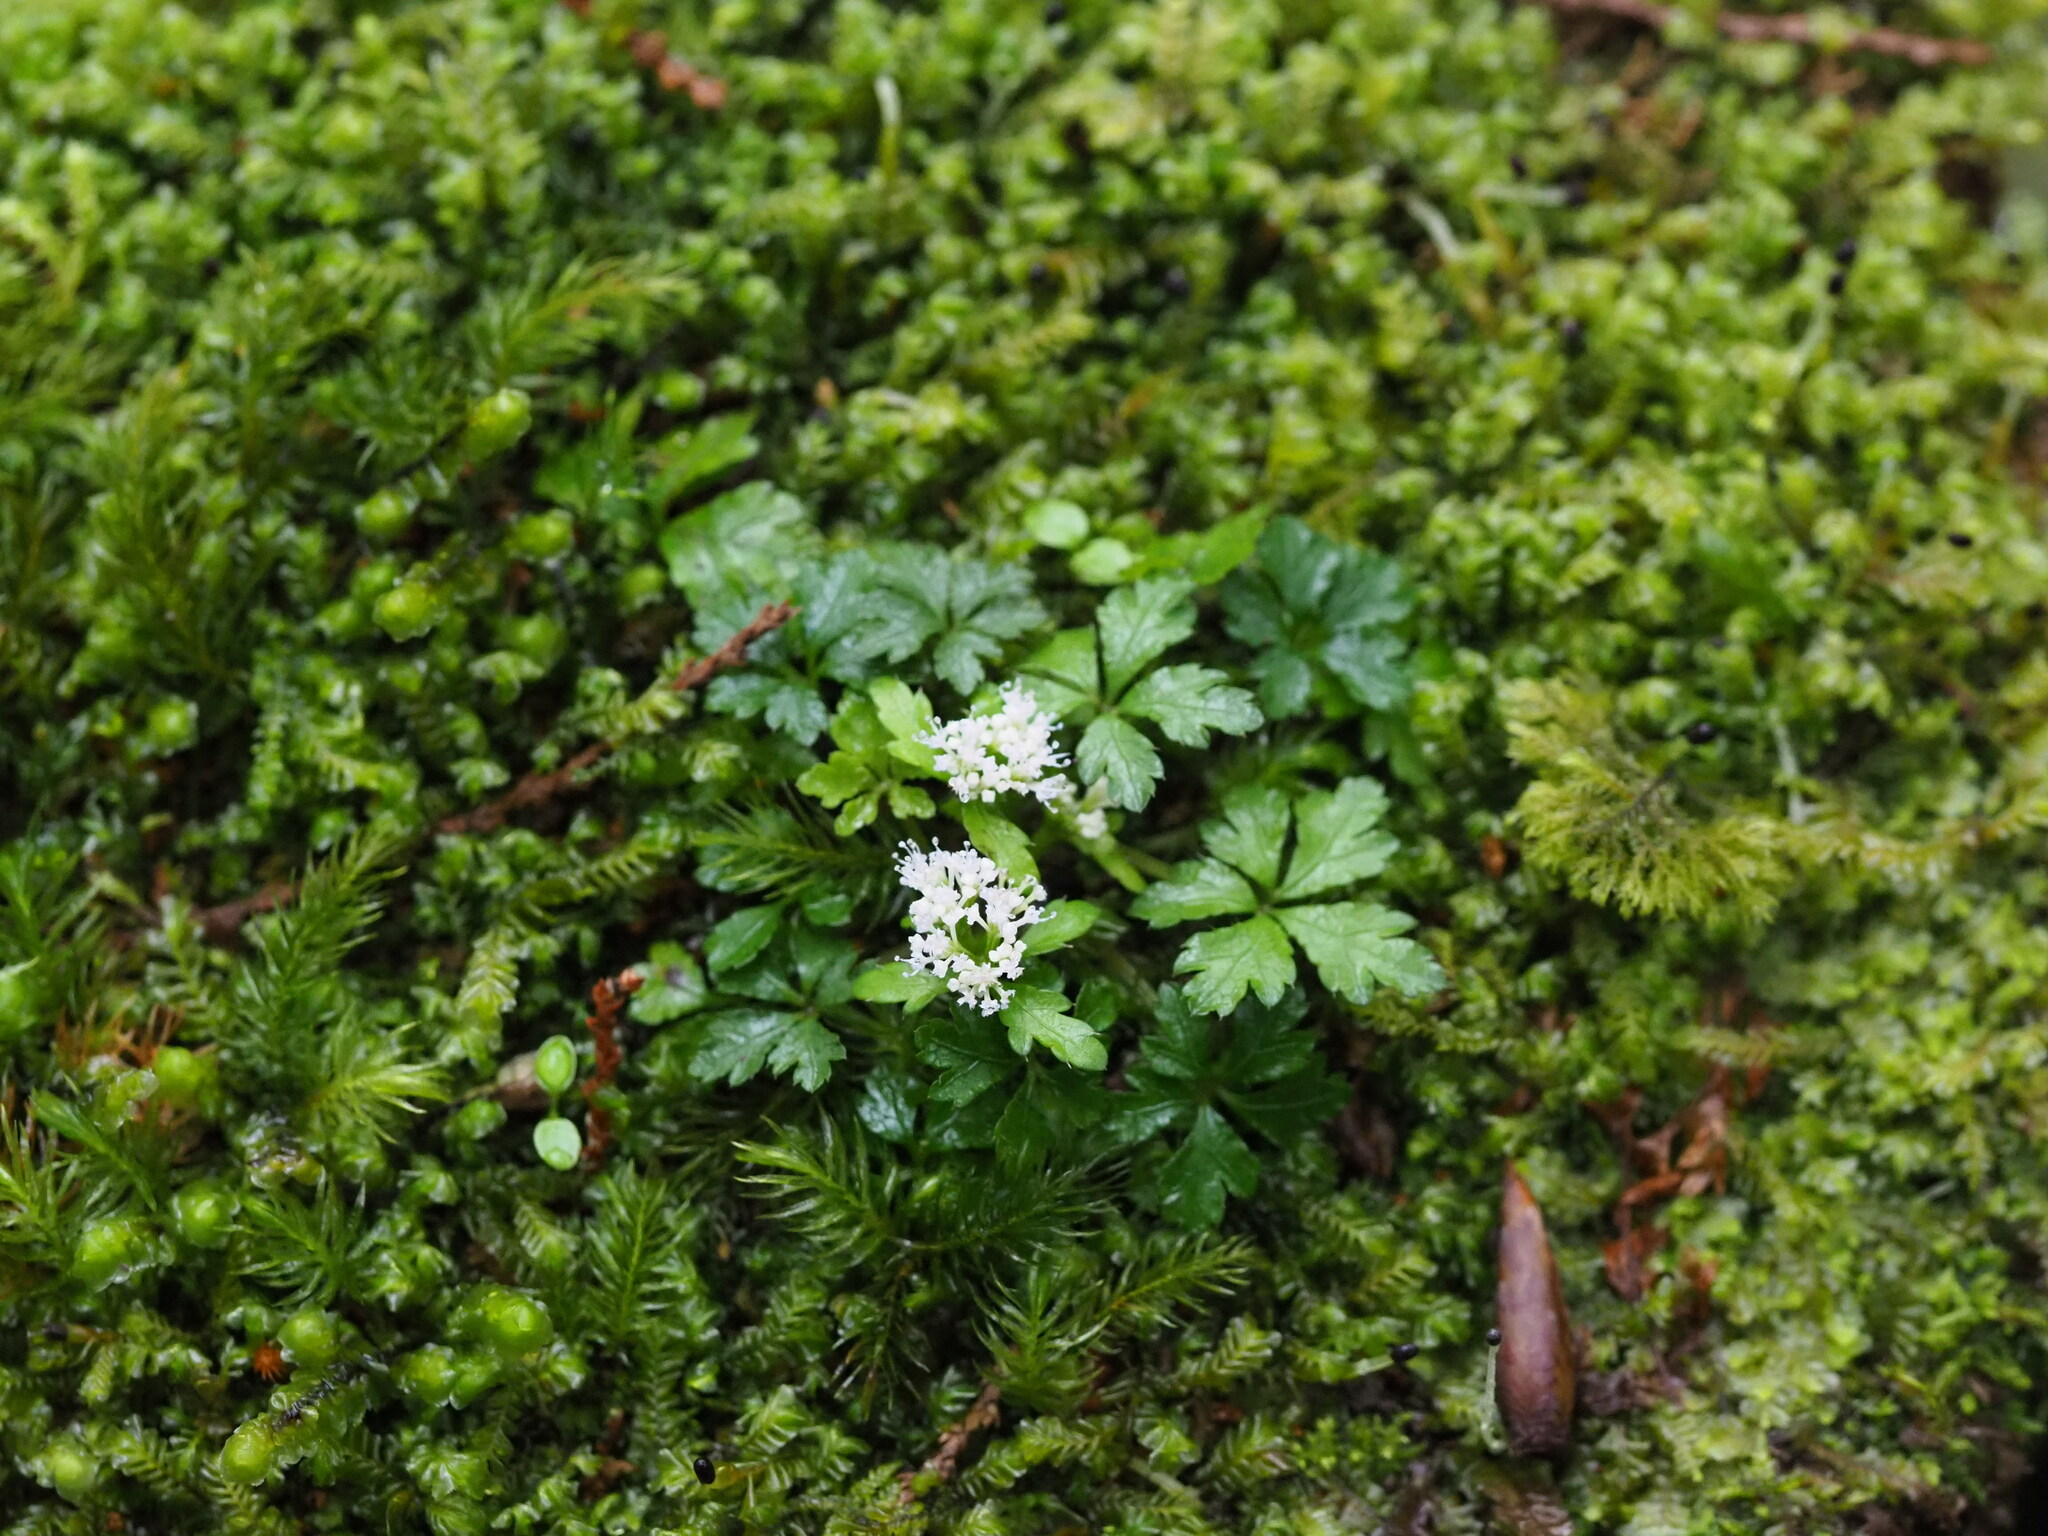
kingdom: Plantae
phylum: Tracheophyta
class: Magnoliopsida
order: Apiales
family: Apiaceae
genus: Sanicula
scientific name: Sanicula petagnioides
